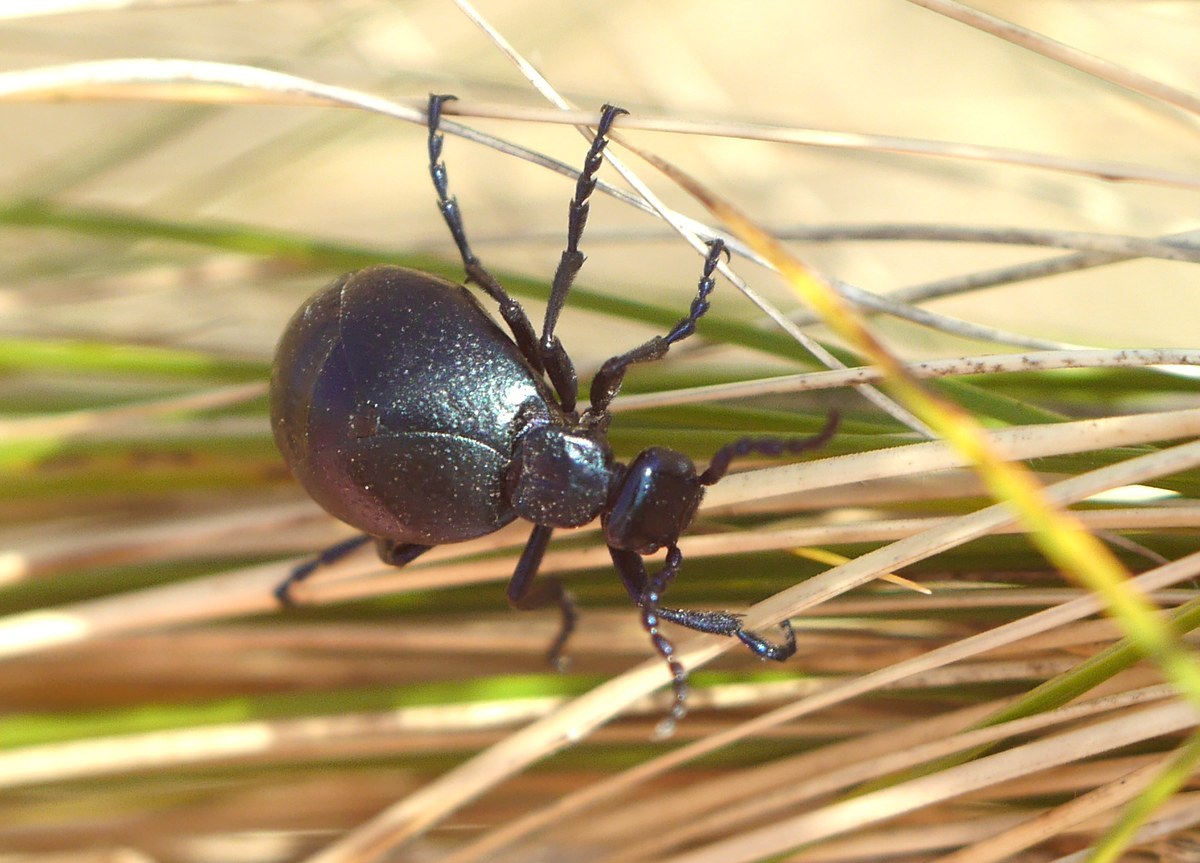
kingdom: Animalia
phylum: Arthropoda
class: Insecta
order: Coleoptera
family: Meloidae
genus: Meloe
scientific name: Meloe autumnalis
